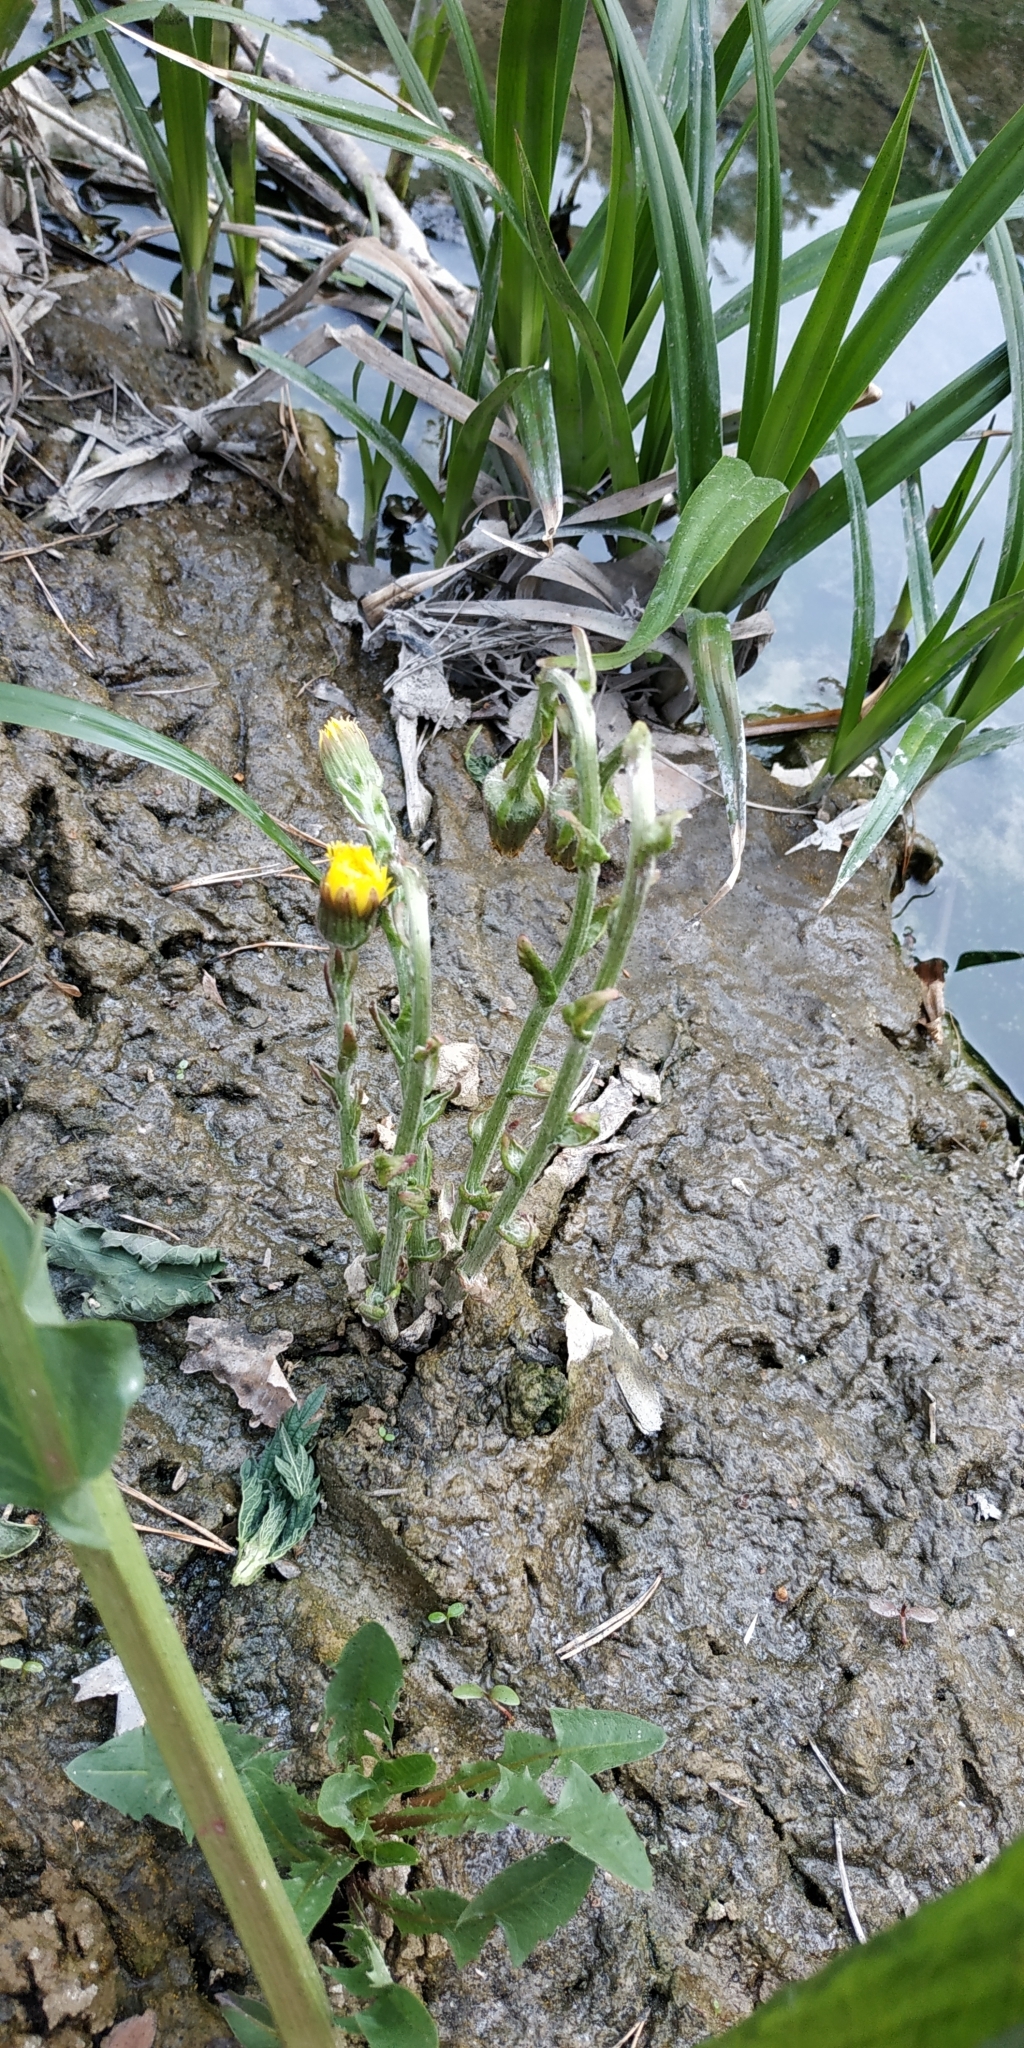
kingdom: Plantae
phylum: Tracheophyta
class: Magnoliopsida
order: Asterales
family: Asteraceae
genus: Tussilago
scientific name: Tussilago farfara
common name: Coltsfoot
